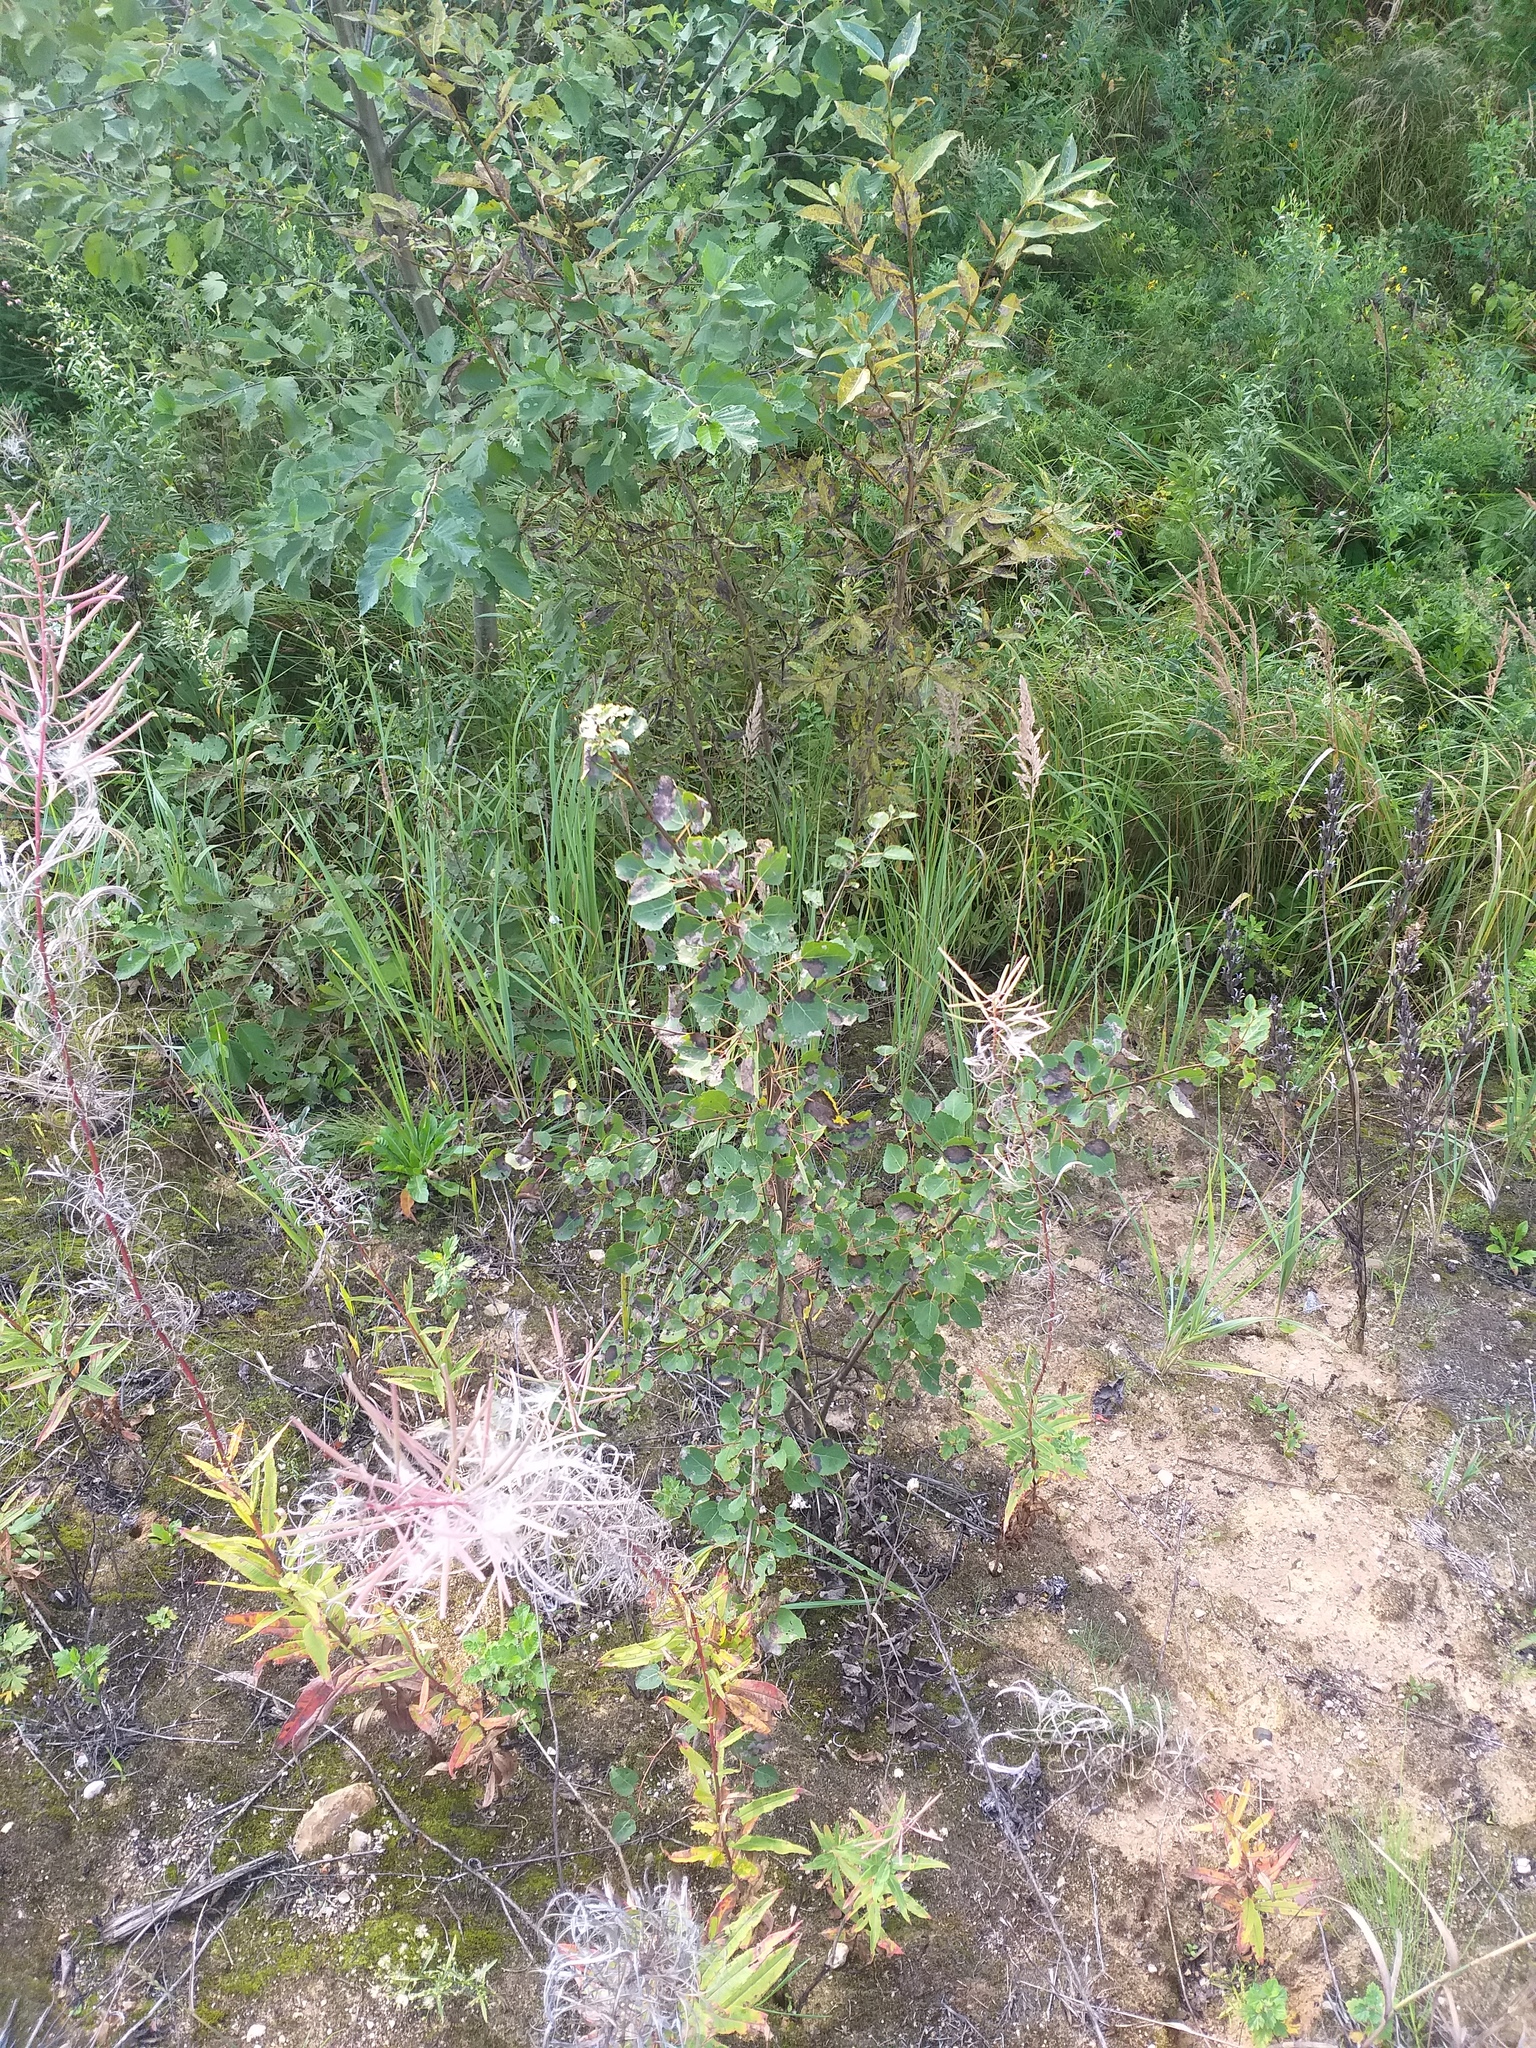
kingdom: Plantae
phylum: Tracheophyta
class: Magnoliopsida
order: Malpighiales
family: Salicaceae
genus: Populus
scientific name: Populus tremula
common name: European aspen
